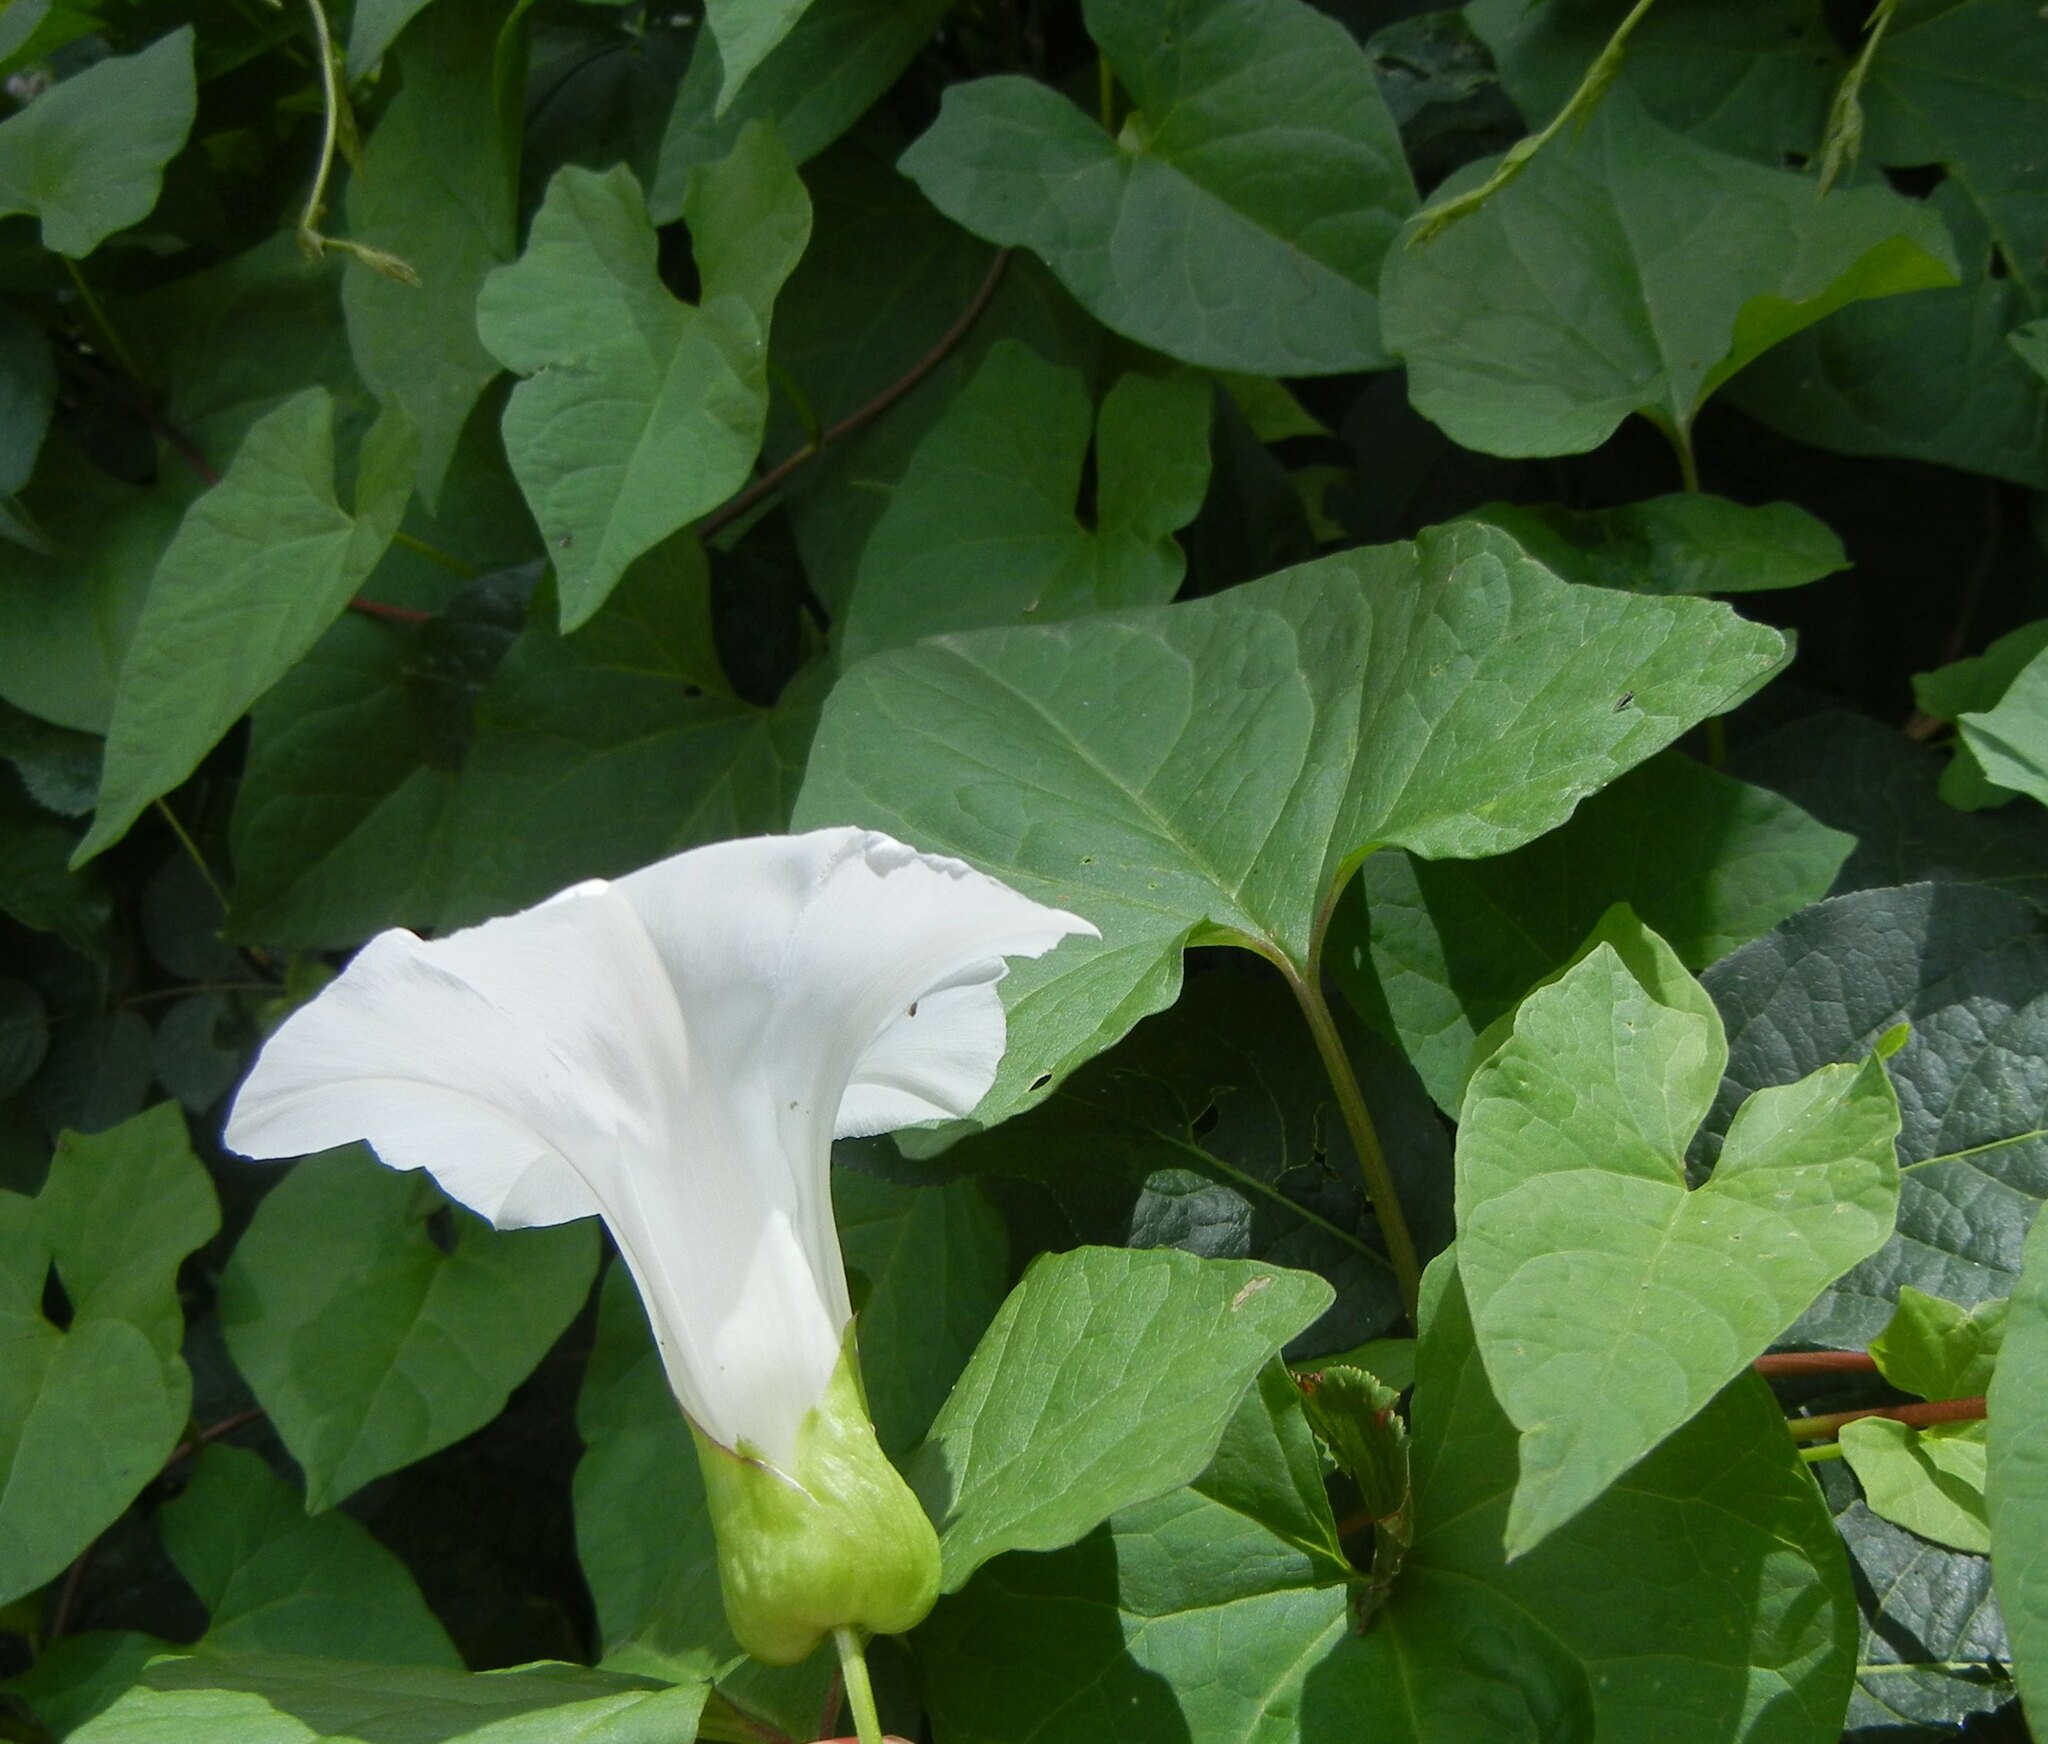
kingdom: Plantae
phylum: Tracheophyta
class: Magnoliopsida
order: Solanales
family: Convolvulaceae
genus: Calystegia
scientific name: Calystegia silvatica
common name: Large bindweed
